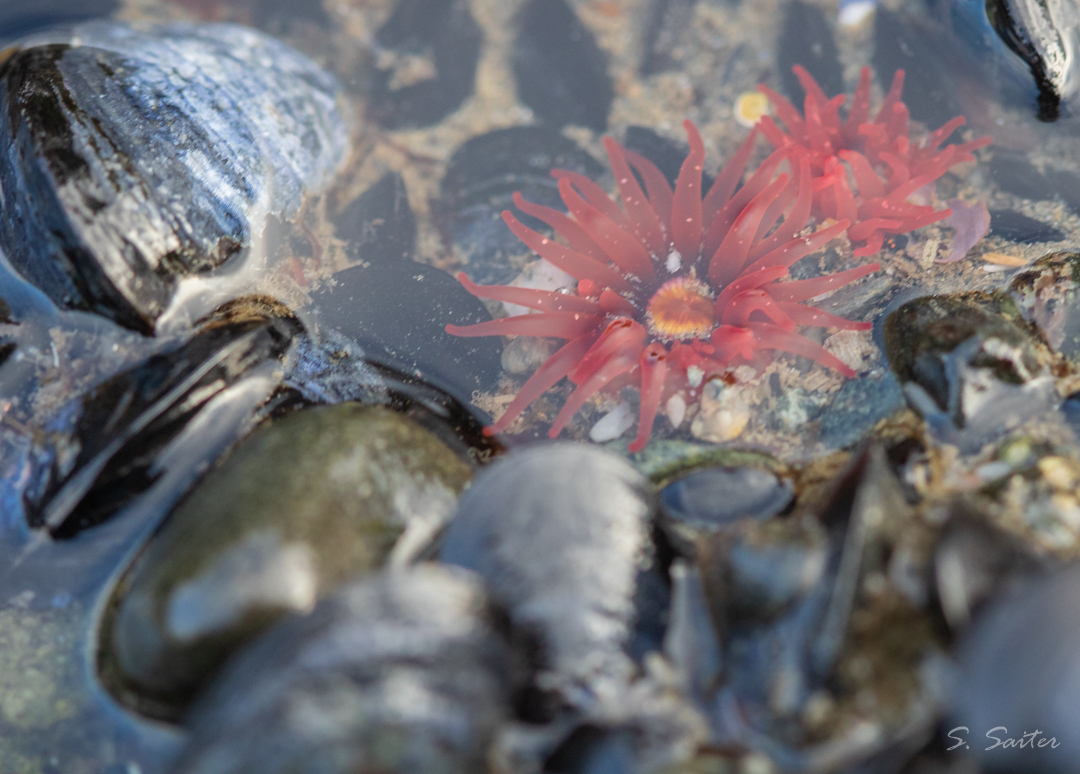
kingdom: Animalia
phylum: Cnidaria
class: Anthozoa
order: Actiniaria
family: Actiniidae
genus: Bunodactis
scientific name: Bunodactis octoradiata
